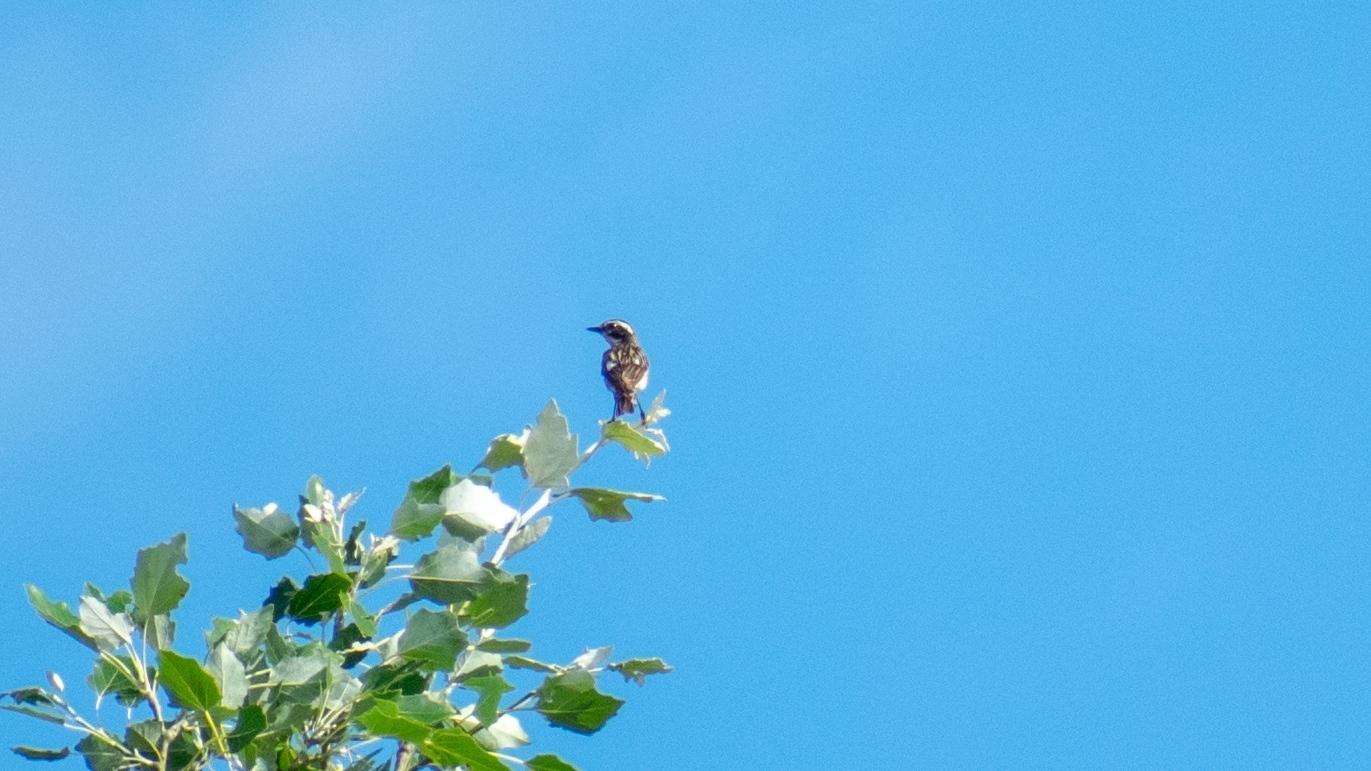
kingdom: Animalia
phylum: Chordata
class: Aves
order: Passeriformes
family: Muscicapidae
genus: Saxicola
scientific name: Saxicola rubetra
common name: Whinchat
